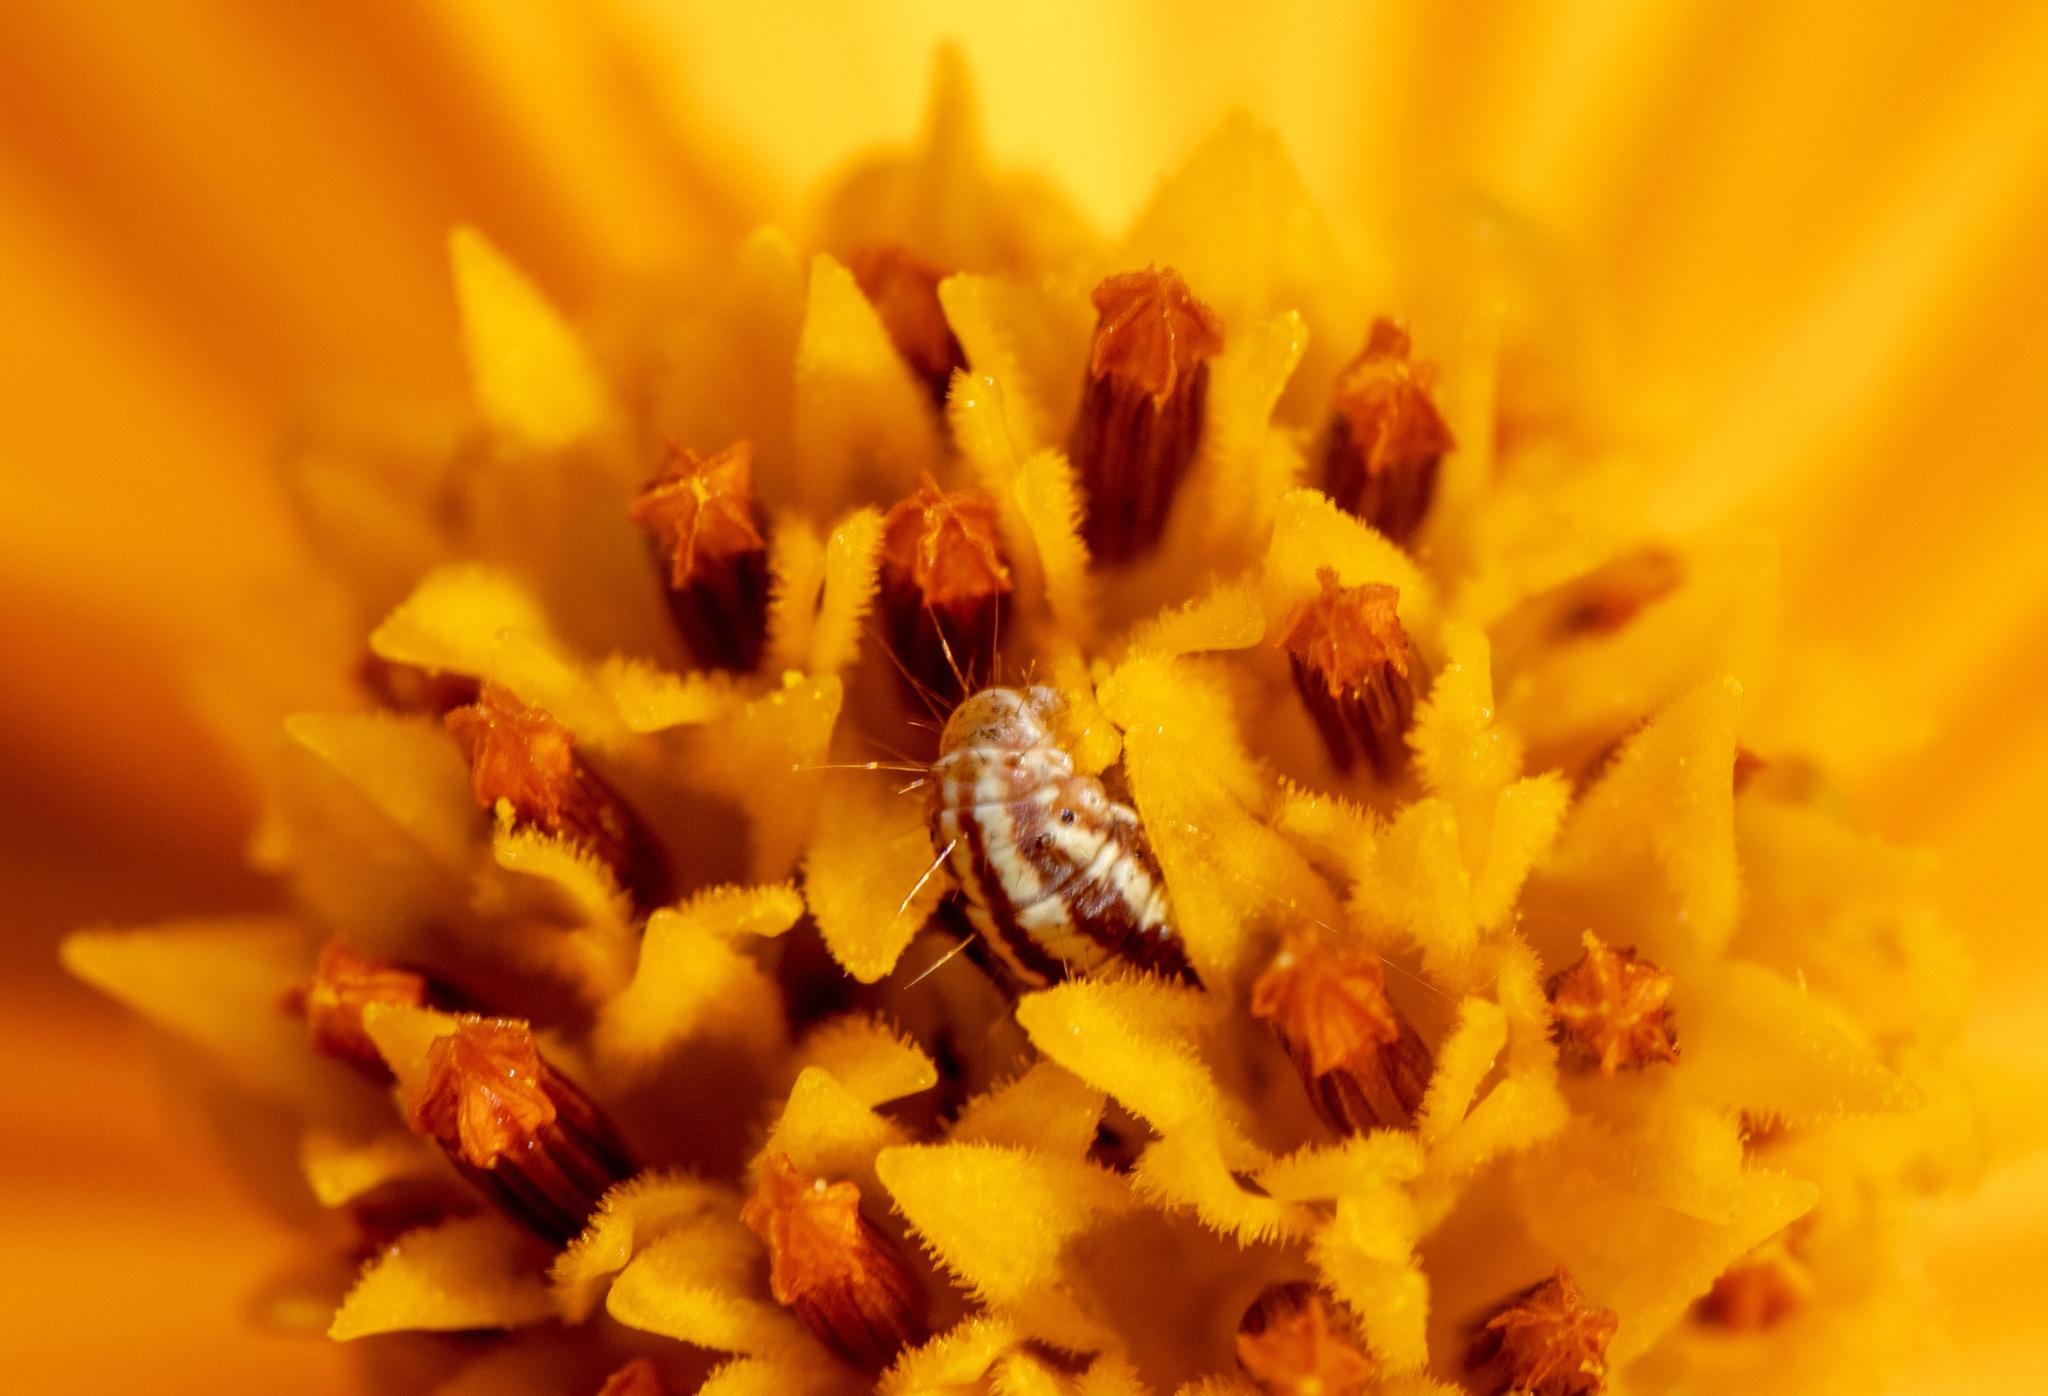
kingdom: Animalia
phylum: Arthropoda
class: Insecta
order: Lepidoptera
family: Pyralidae
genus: Homoeosoma
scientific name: Homoeosoma electella
